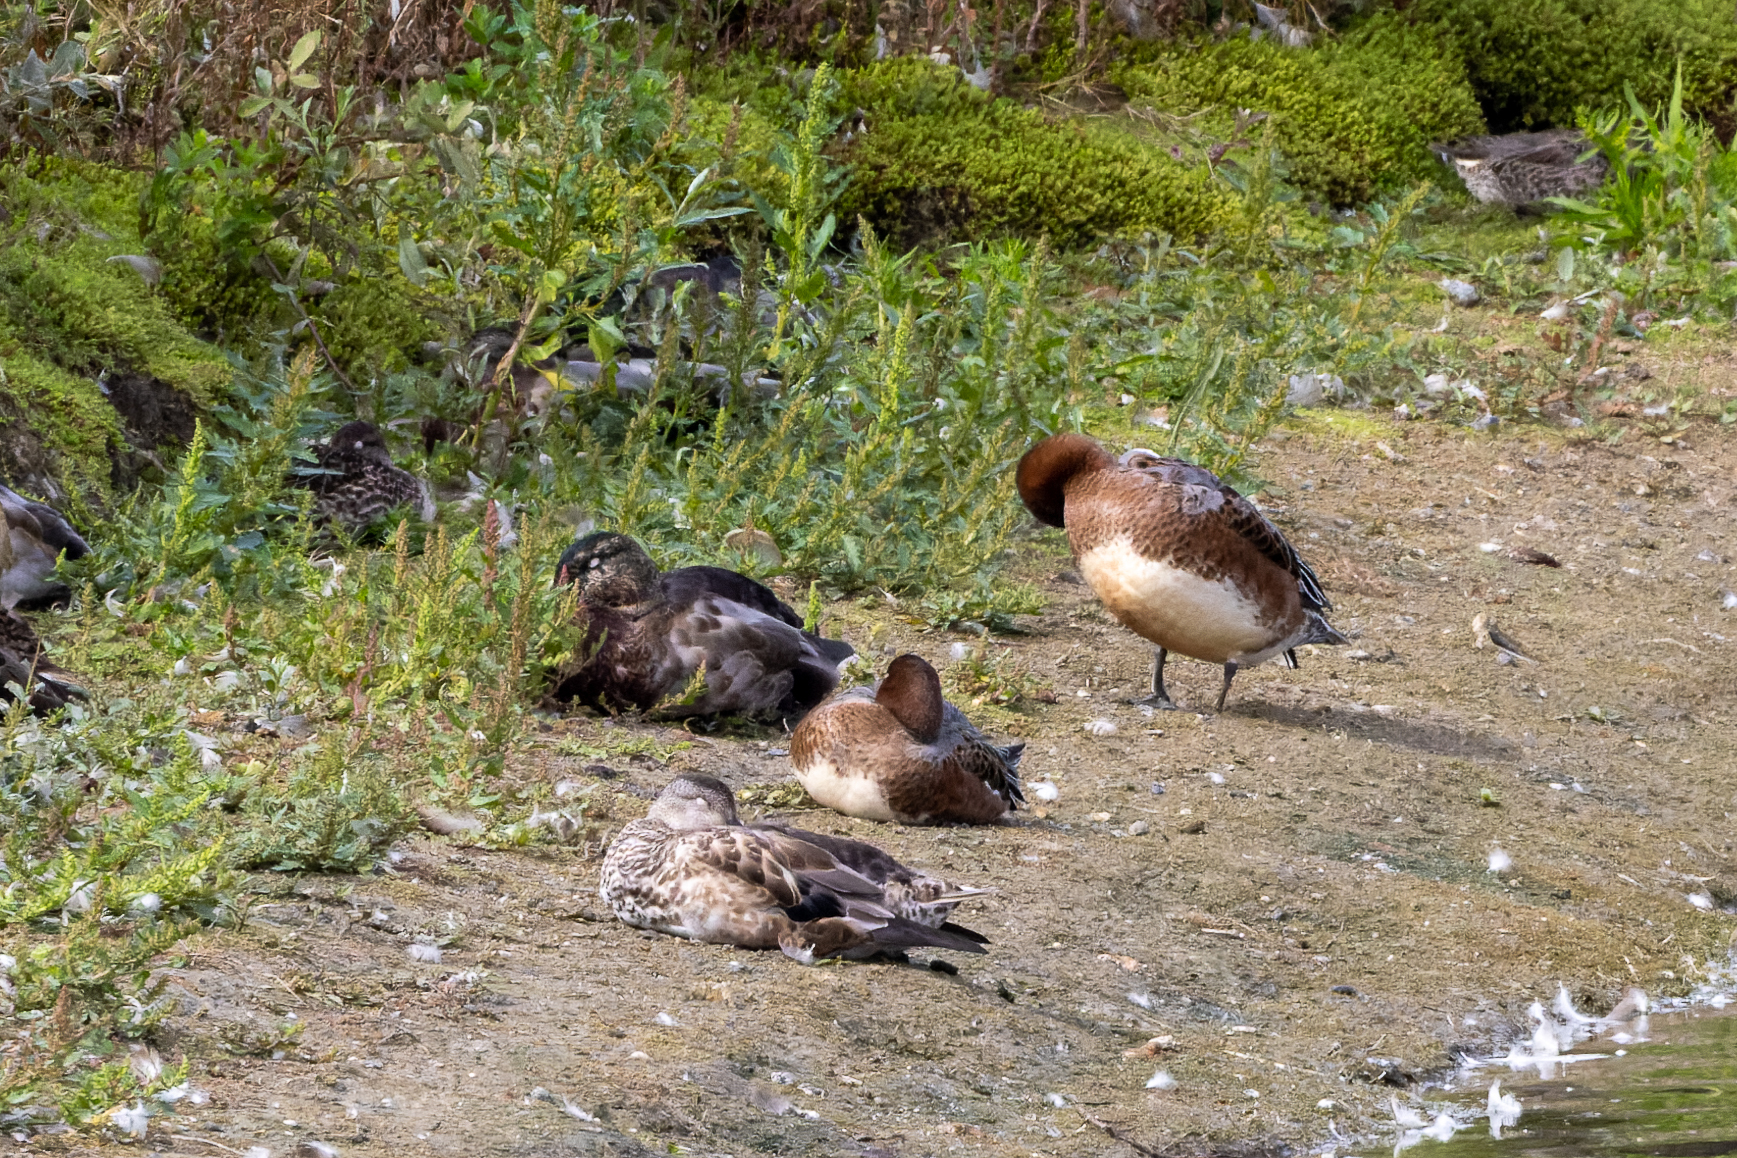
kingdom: Animalia
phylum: Chordata
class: Aves
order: Anseriformes
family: Anatidae
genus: Mareca
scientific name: Mareca penelope
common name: Eurasian wigeon
